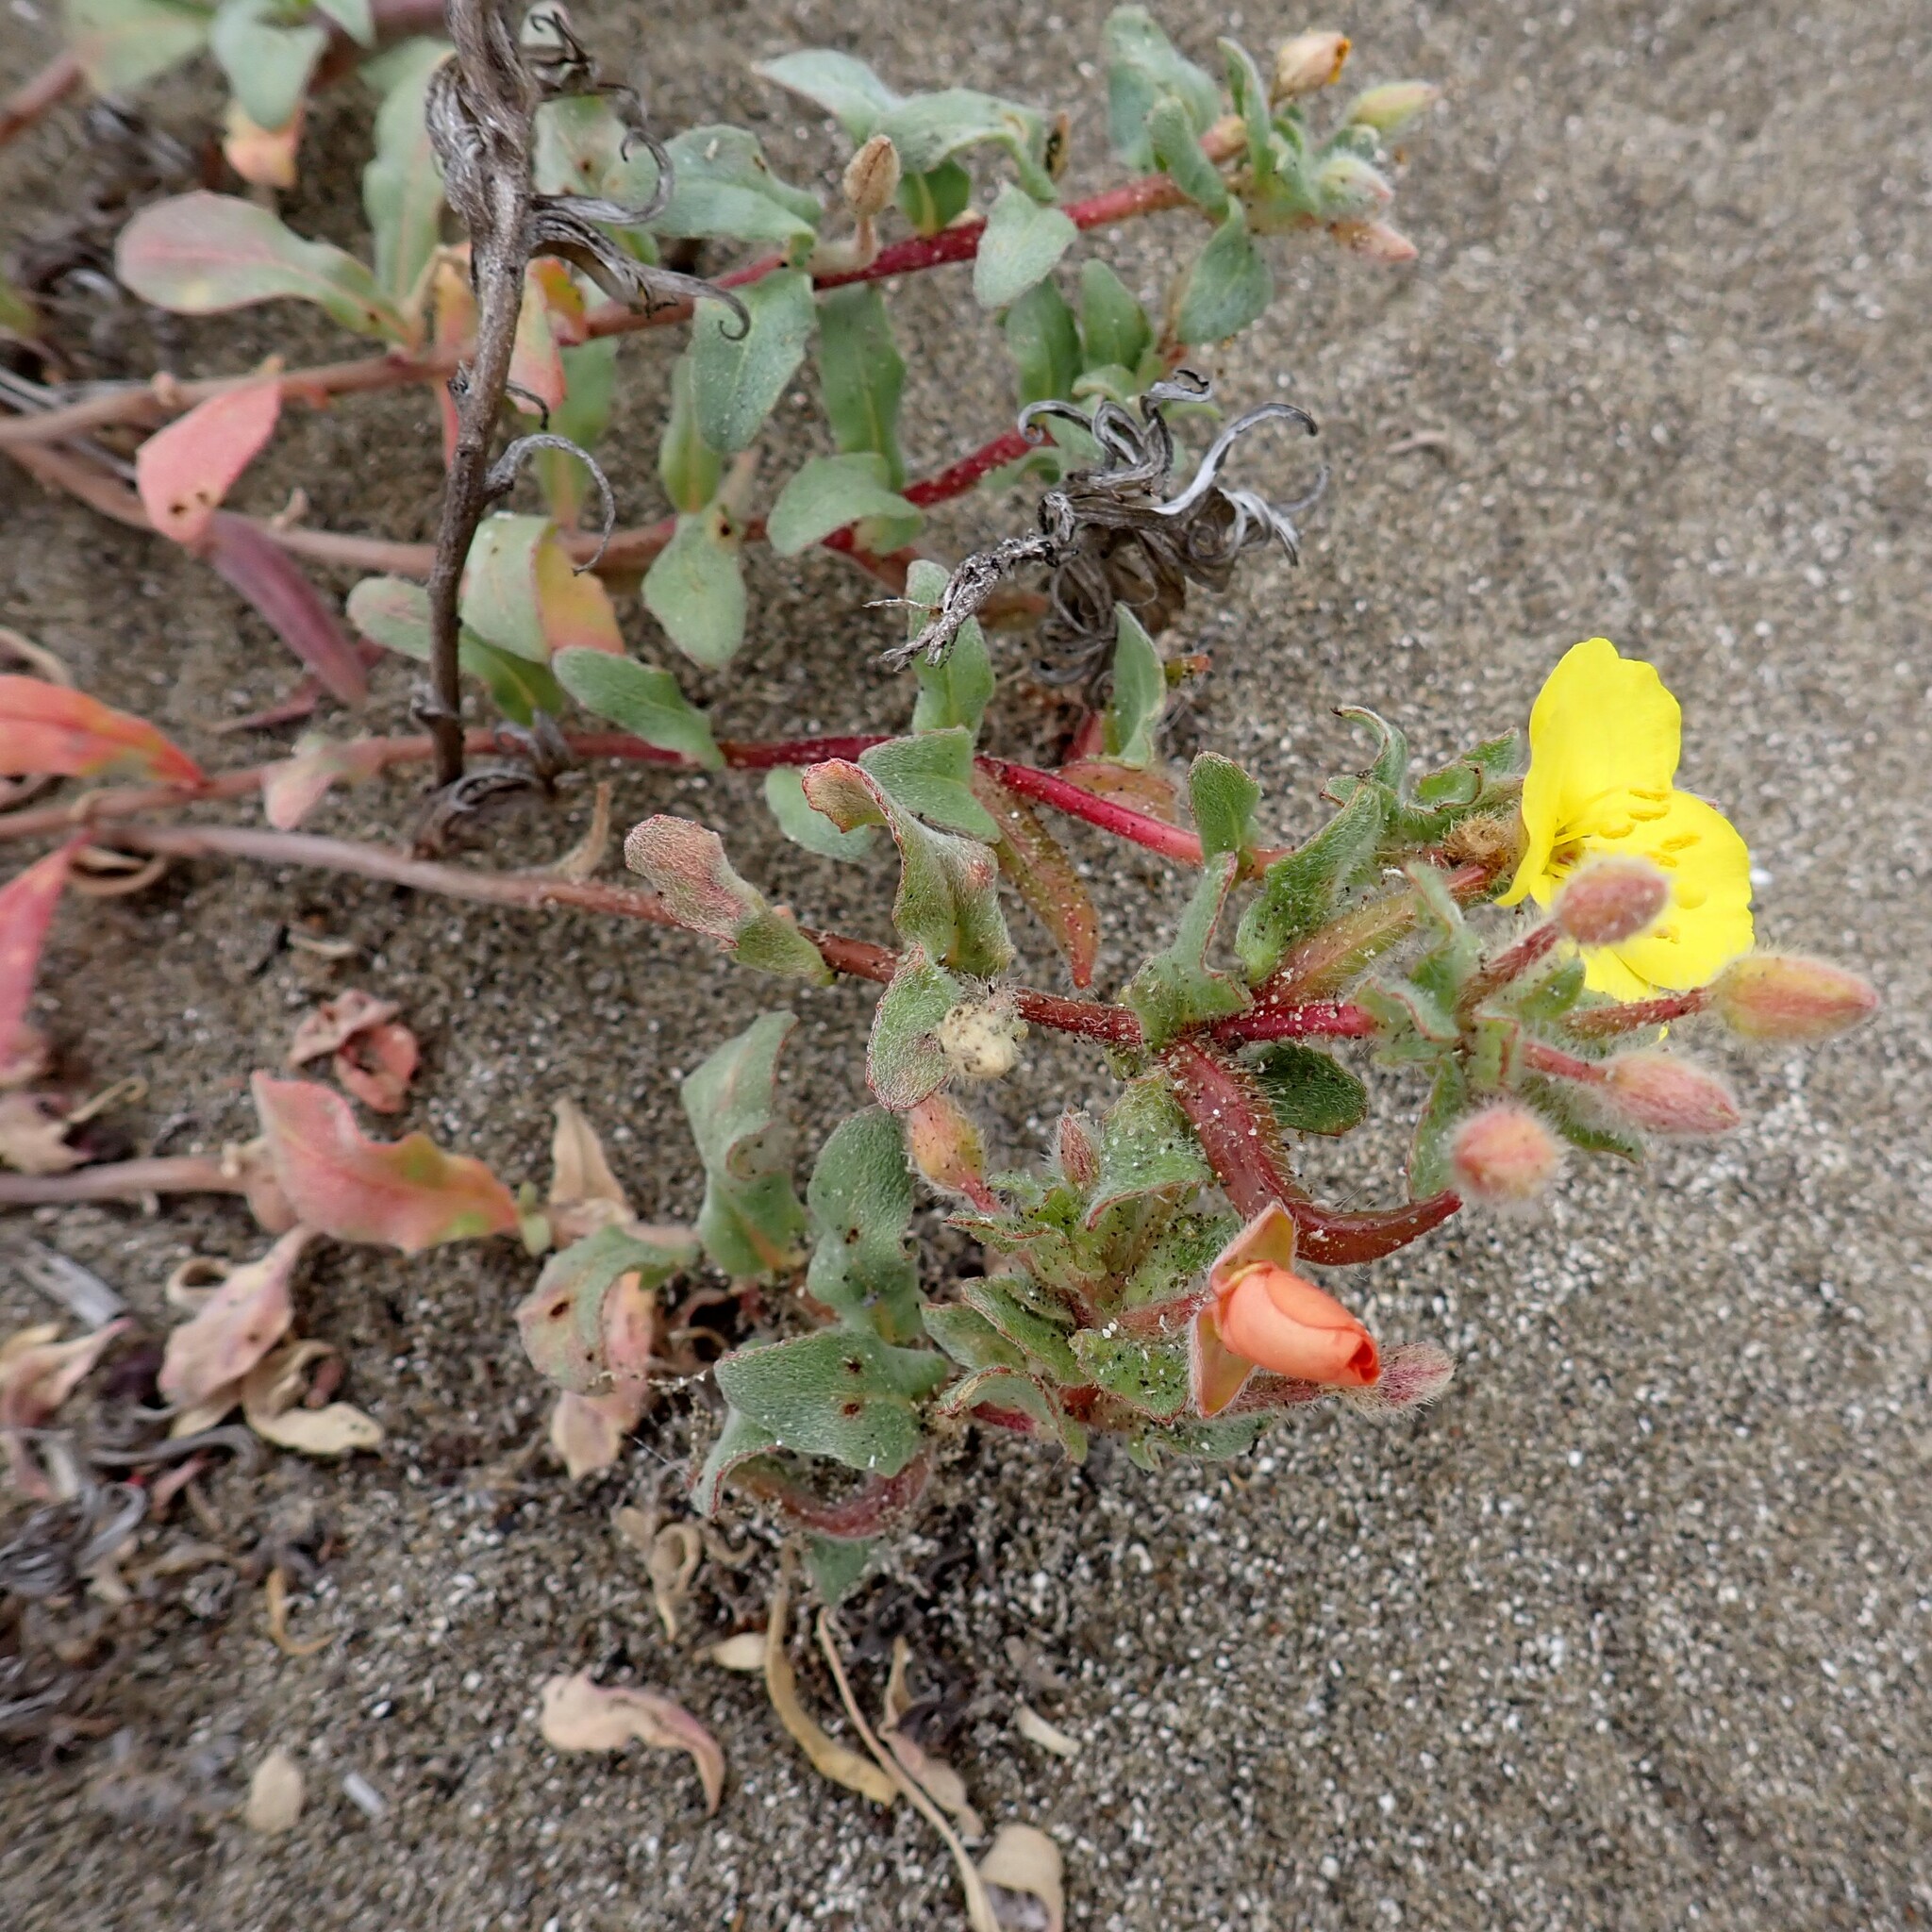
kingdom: Plantae
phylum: Tracheophyta
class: Magnoliopsida
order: Myrtales
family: Onagraceae
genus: Camissoniopsis
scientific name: Camissoniopsis cheiranthifolia
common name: Beach suncup
